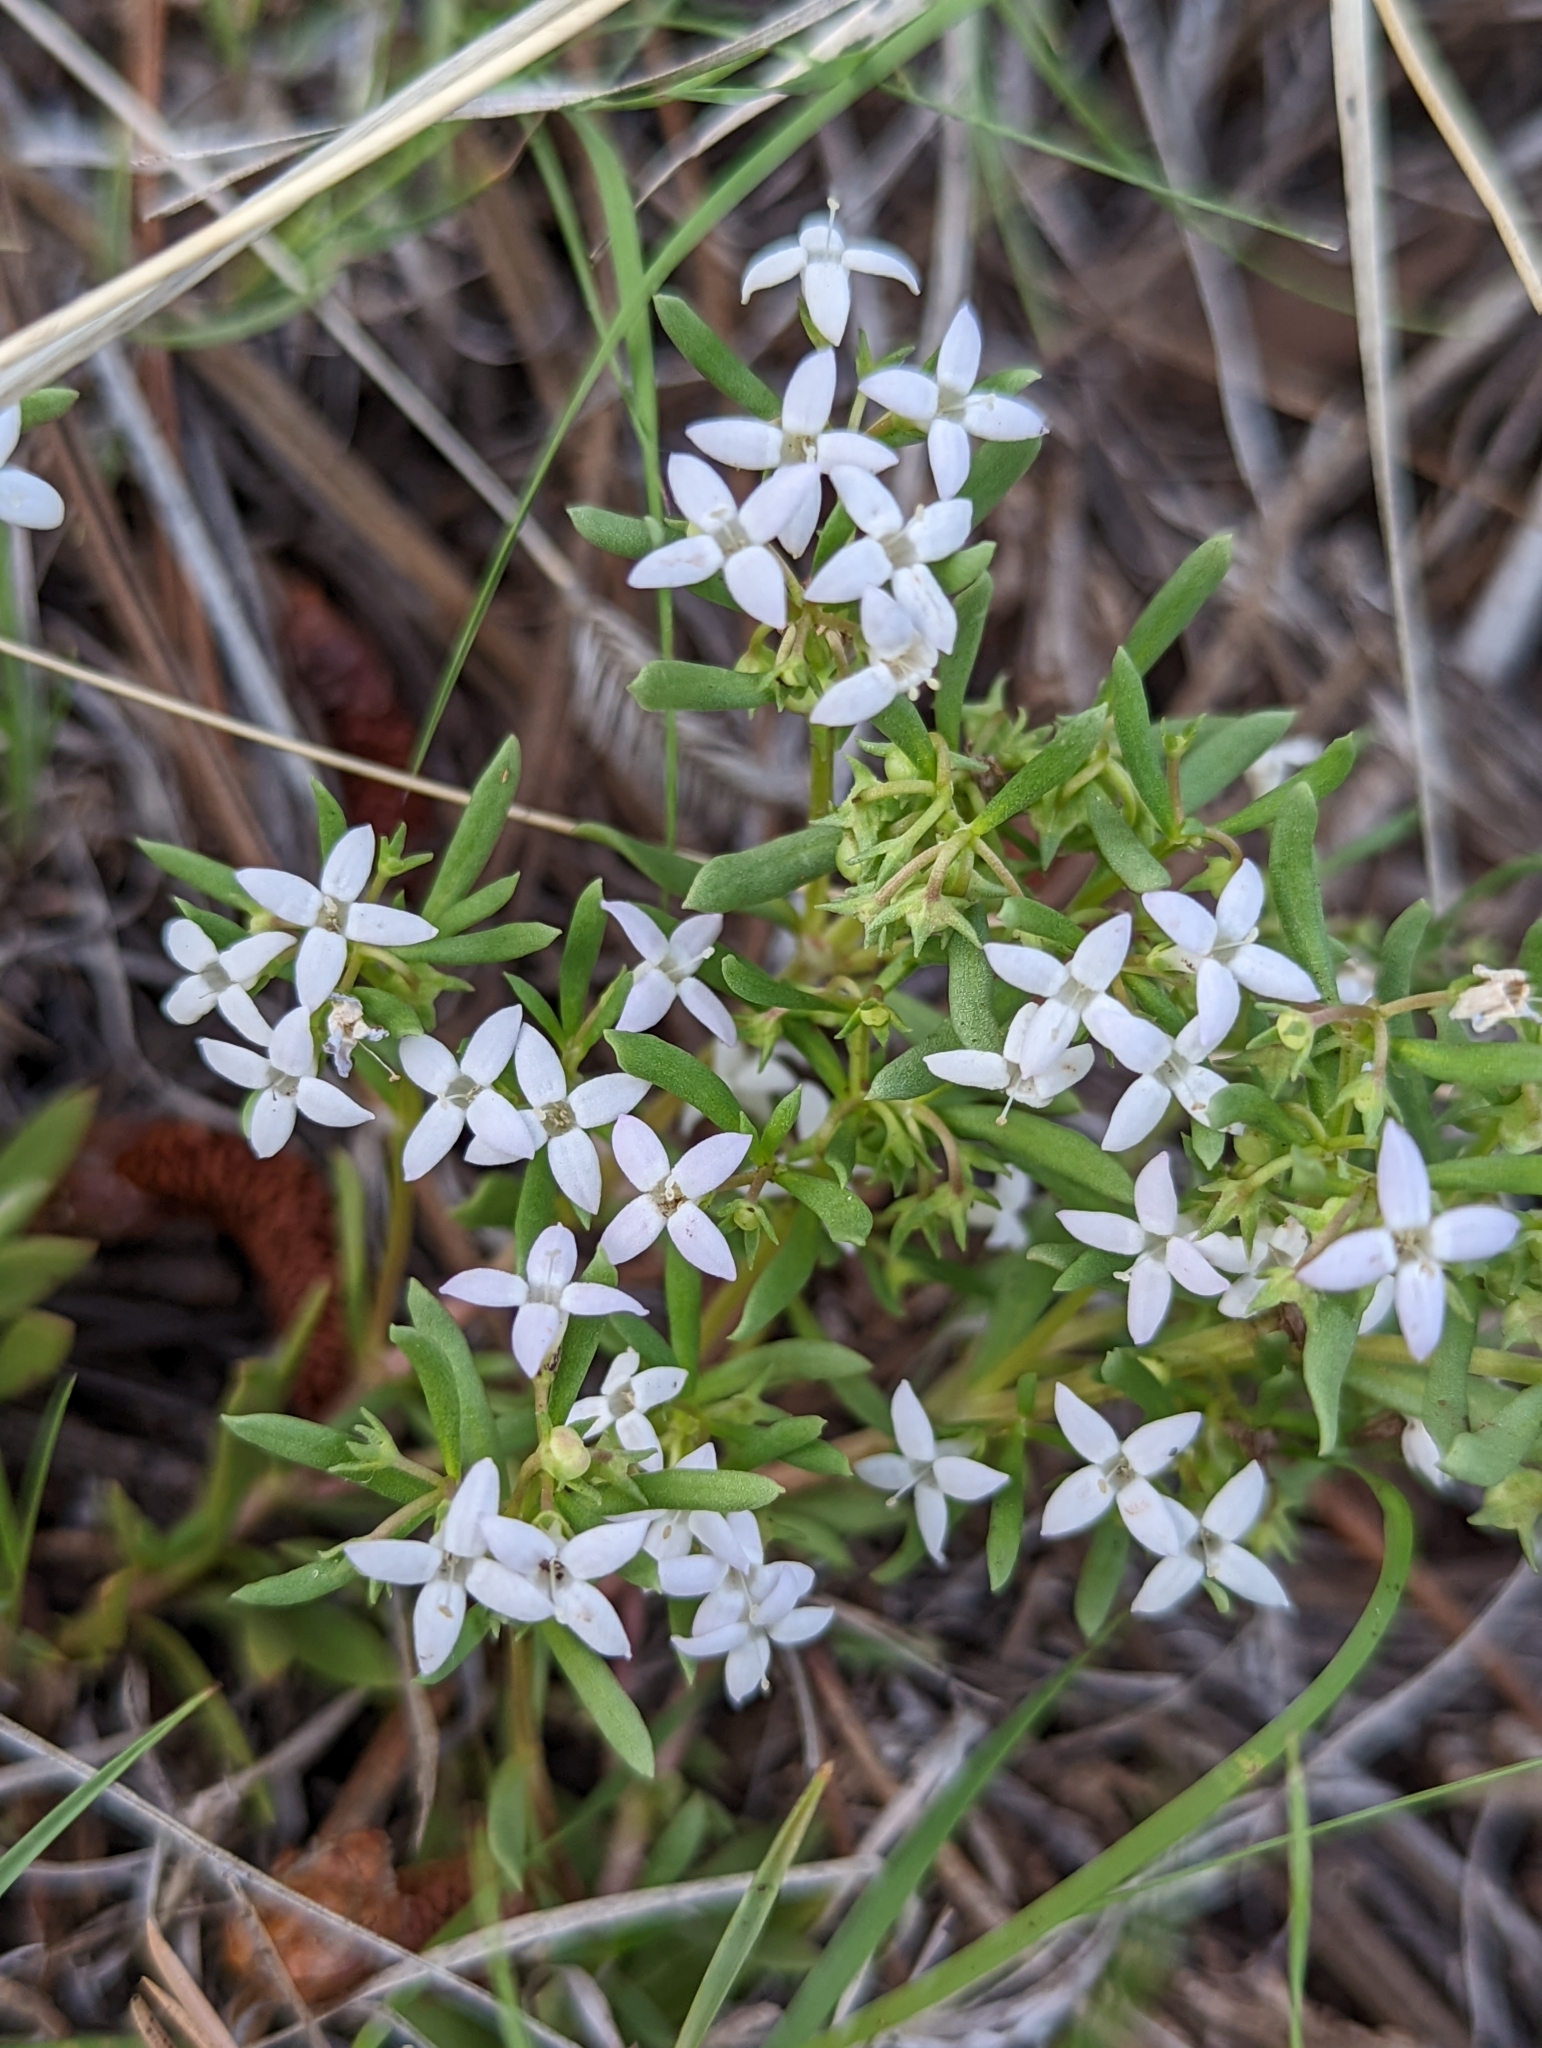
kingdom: Plantae
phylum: Tracheophyta
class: Magnoliopsida
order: Gentianales
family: Rubiaceae
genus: Houstonia
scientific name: Houstonia wrightii
